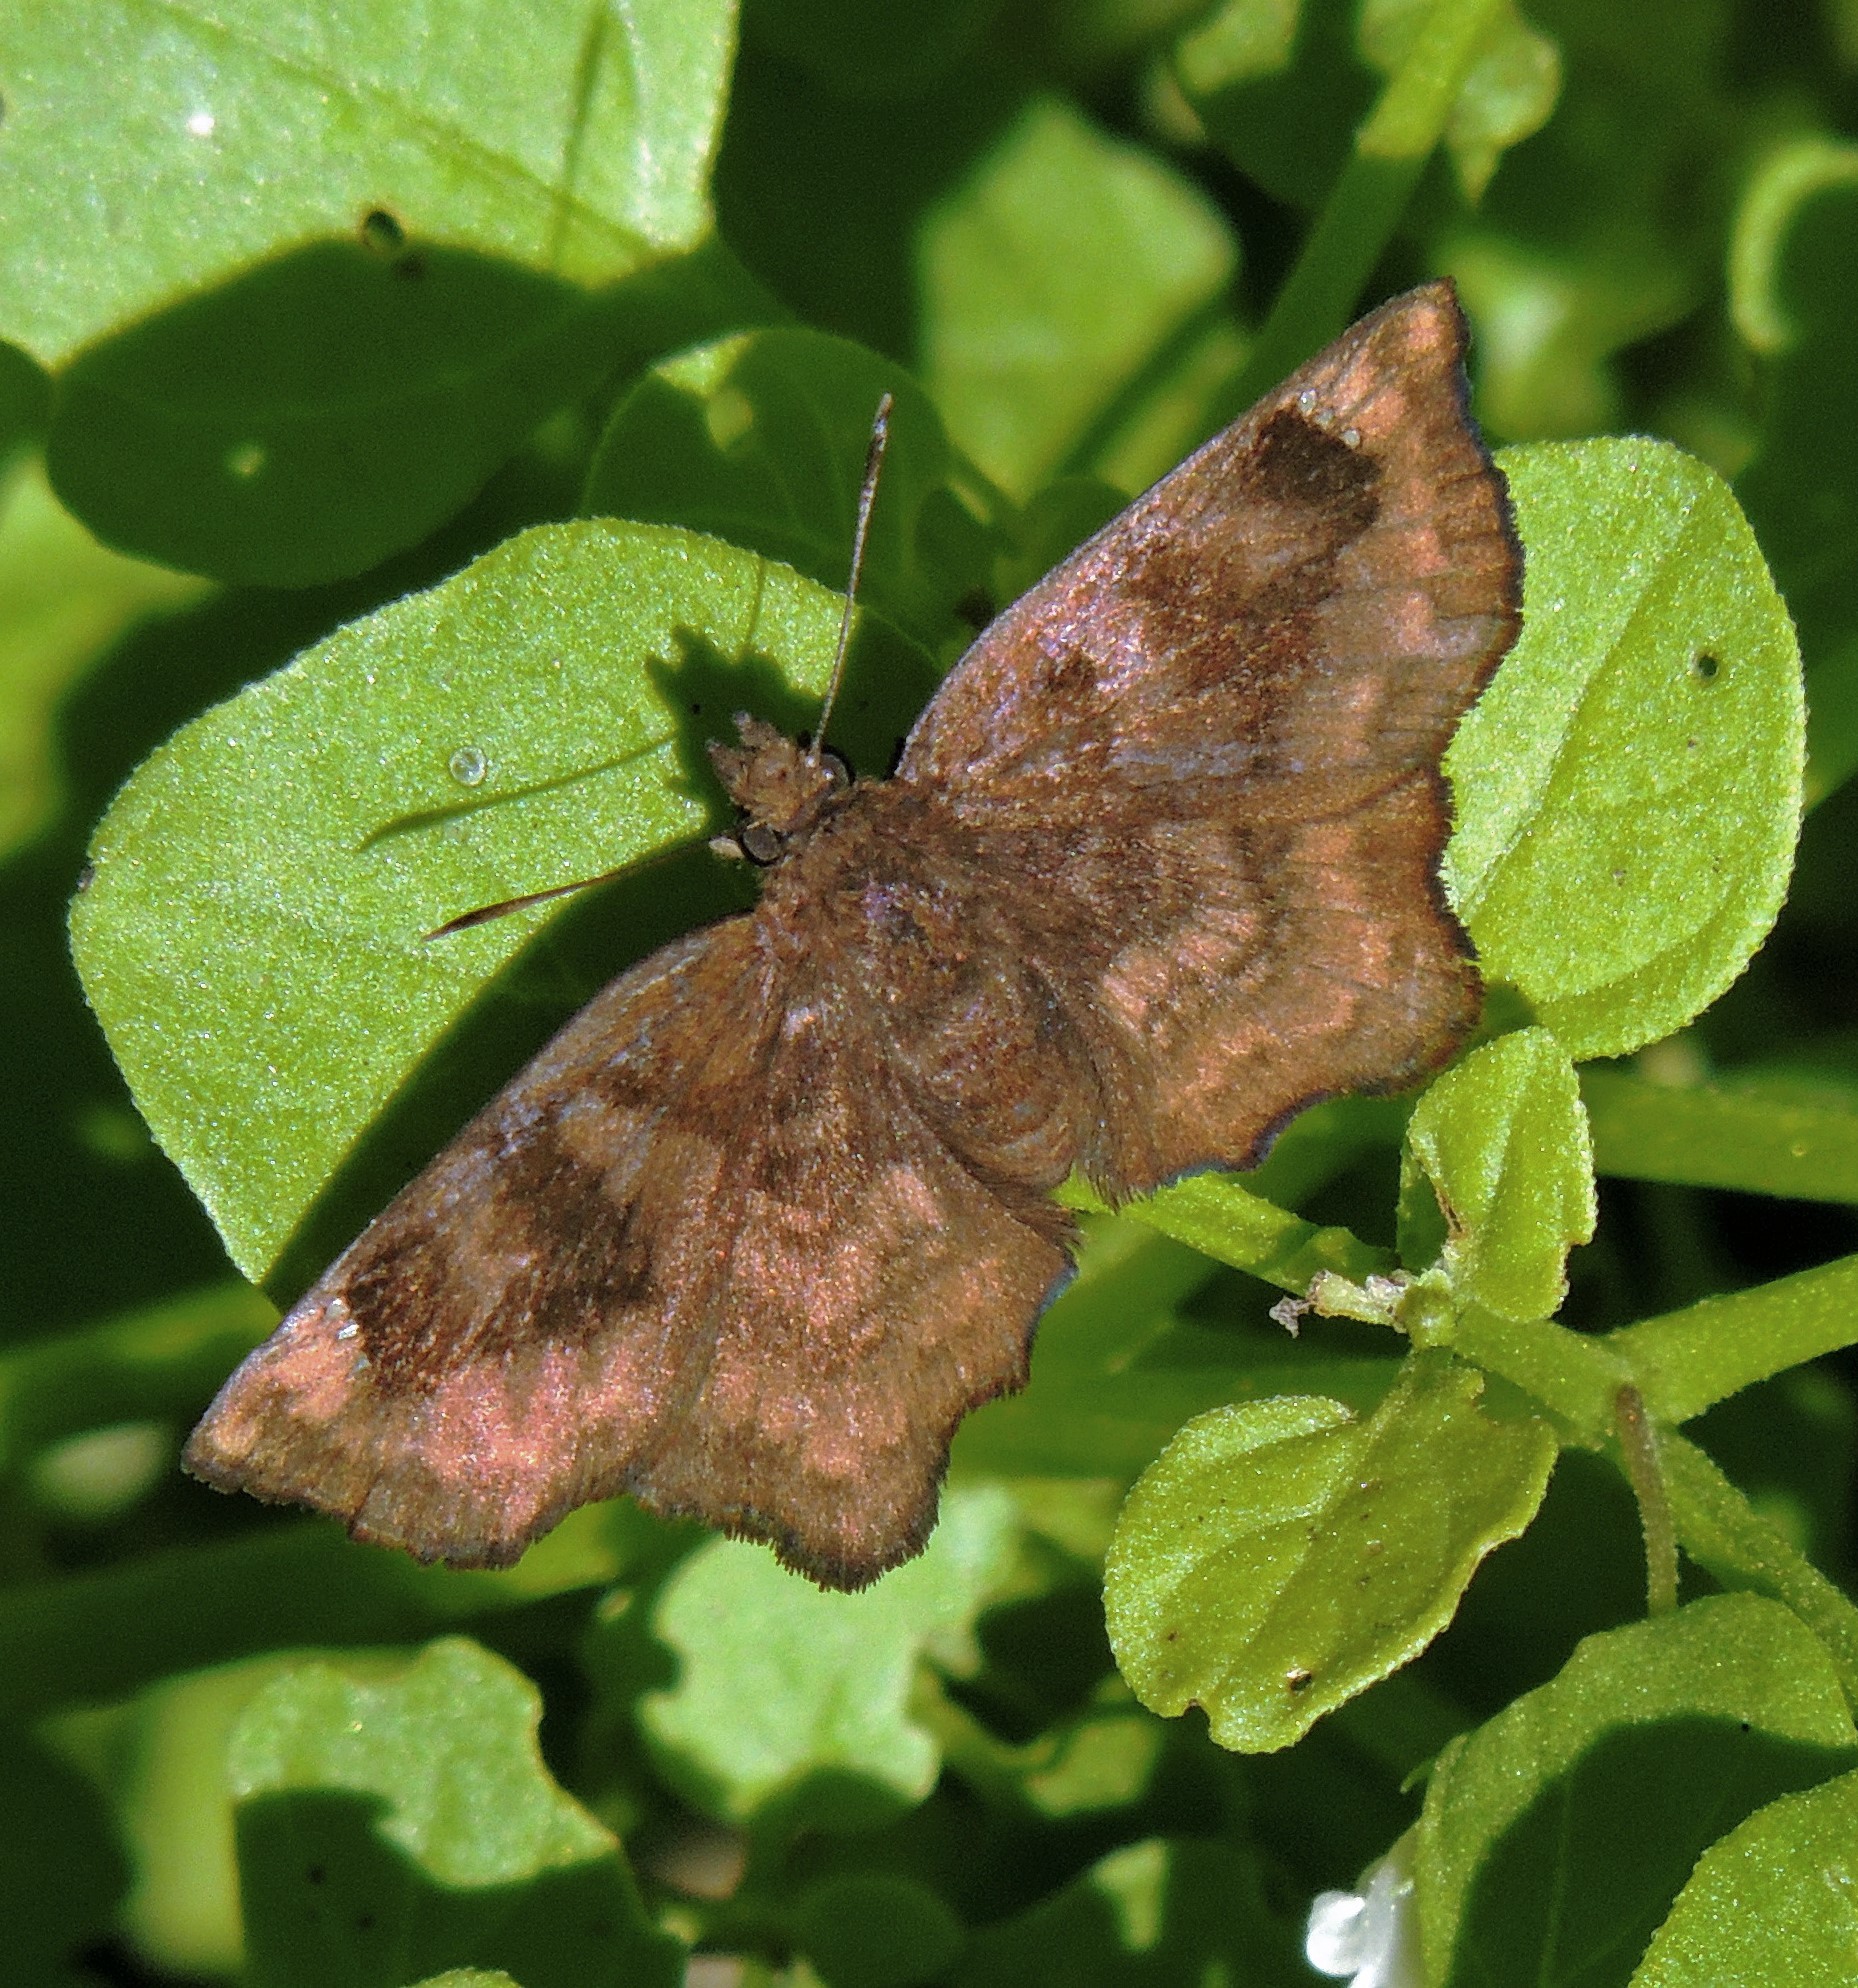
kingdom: Animalia
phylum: Arthropoda
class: Insecta
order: Lepidoptera
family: Hesperiidae
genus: Nisoniades
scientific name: Nisoniades macarius
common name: Macarius tufted-skipper
